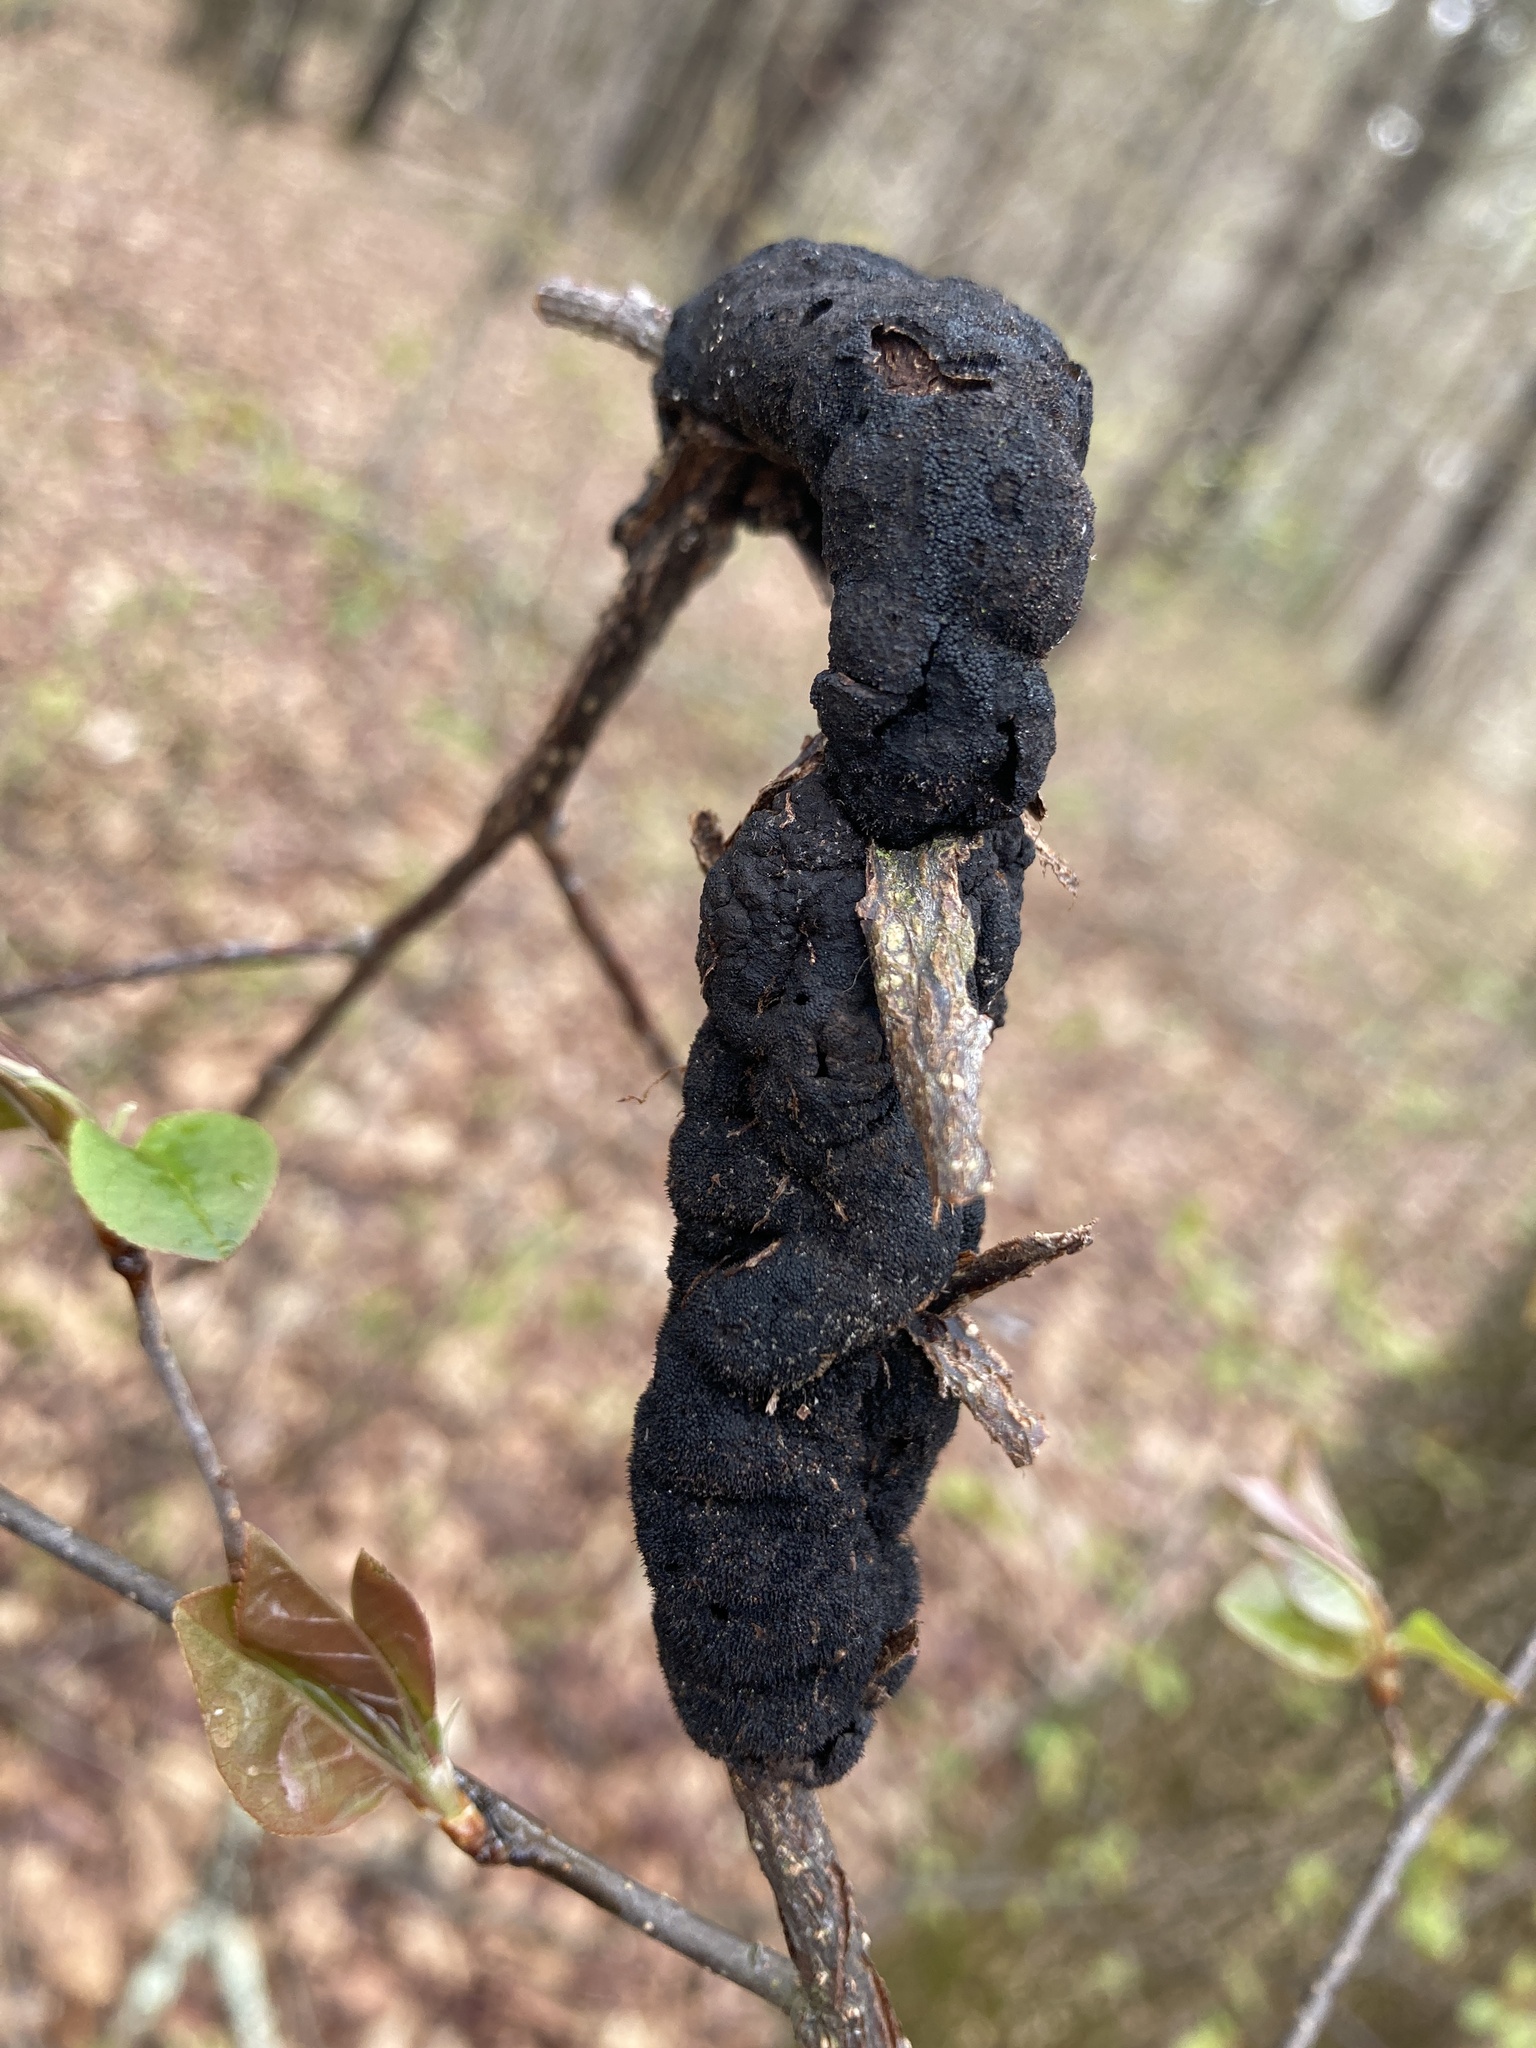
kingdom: Fungi
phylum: Ascomycota
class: Dothideomycetes
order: Venturiales
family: Venturiaceae
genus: Apiosporina
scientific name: Apiosporina morbosa
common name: Black knot
